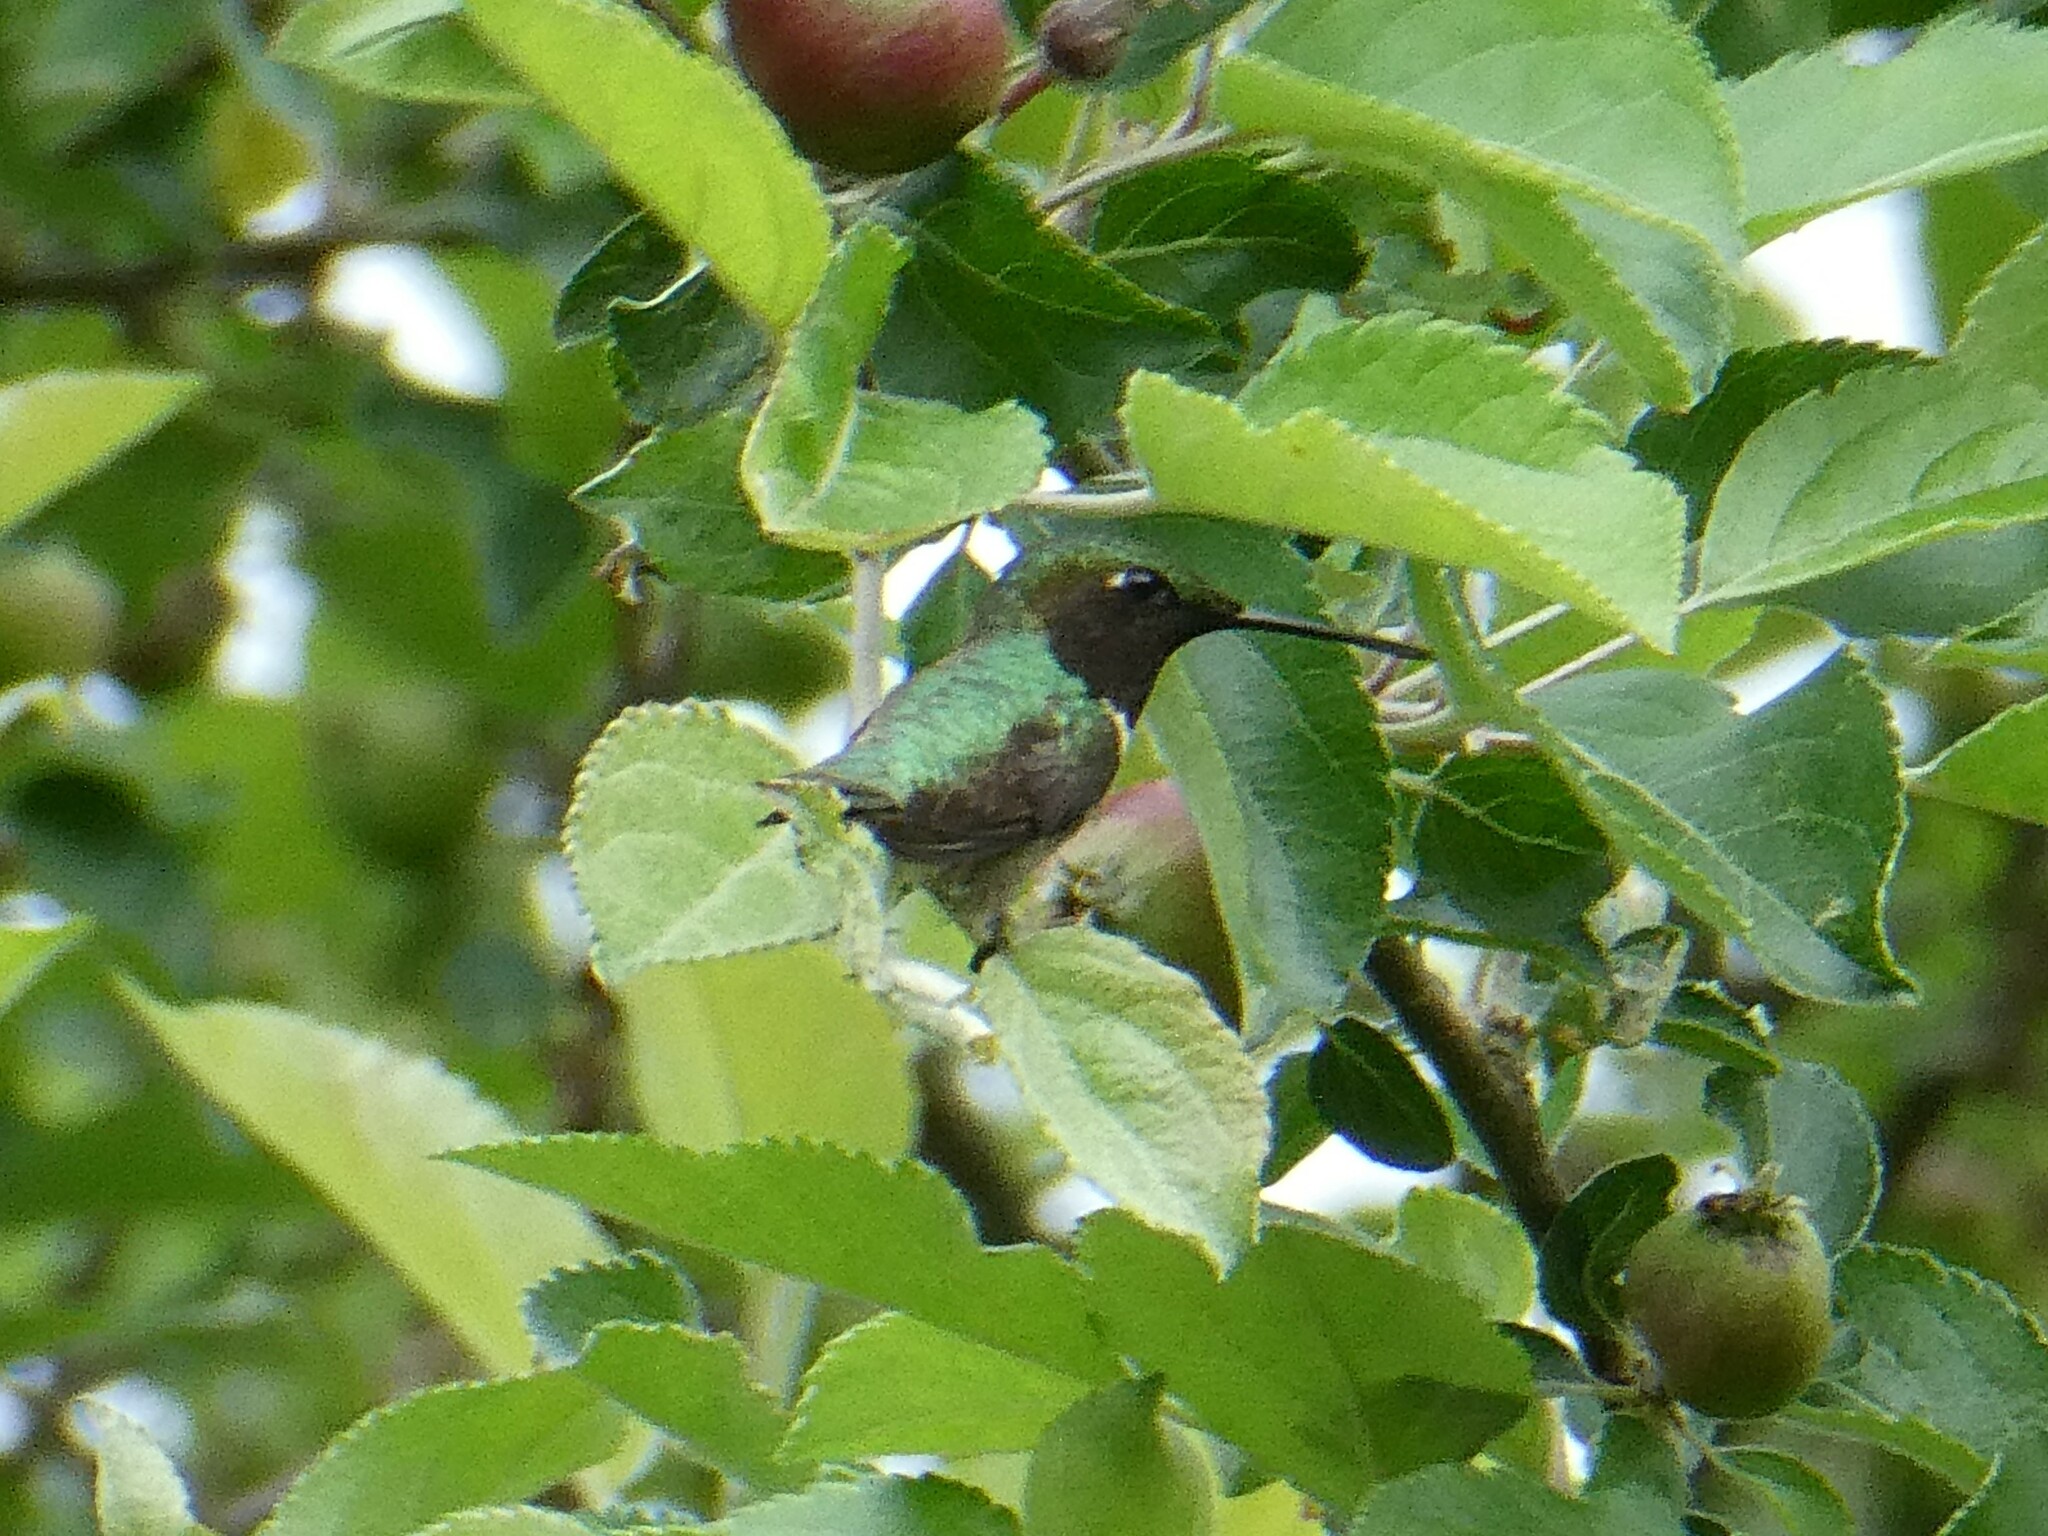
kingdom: Animalia
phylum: Chordata
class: Aves
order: Apodiformes
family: Trochilidae
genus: Archilochus
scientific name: Archilochus colubris
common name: Ruby-throated hummingbird
